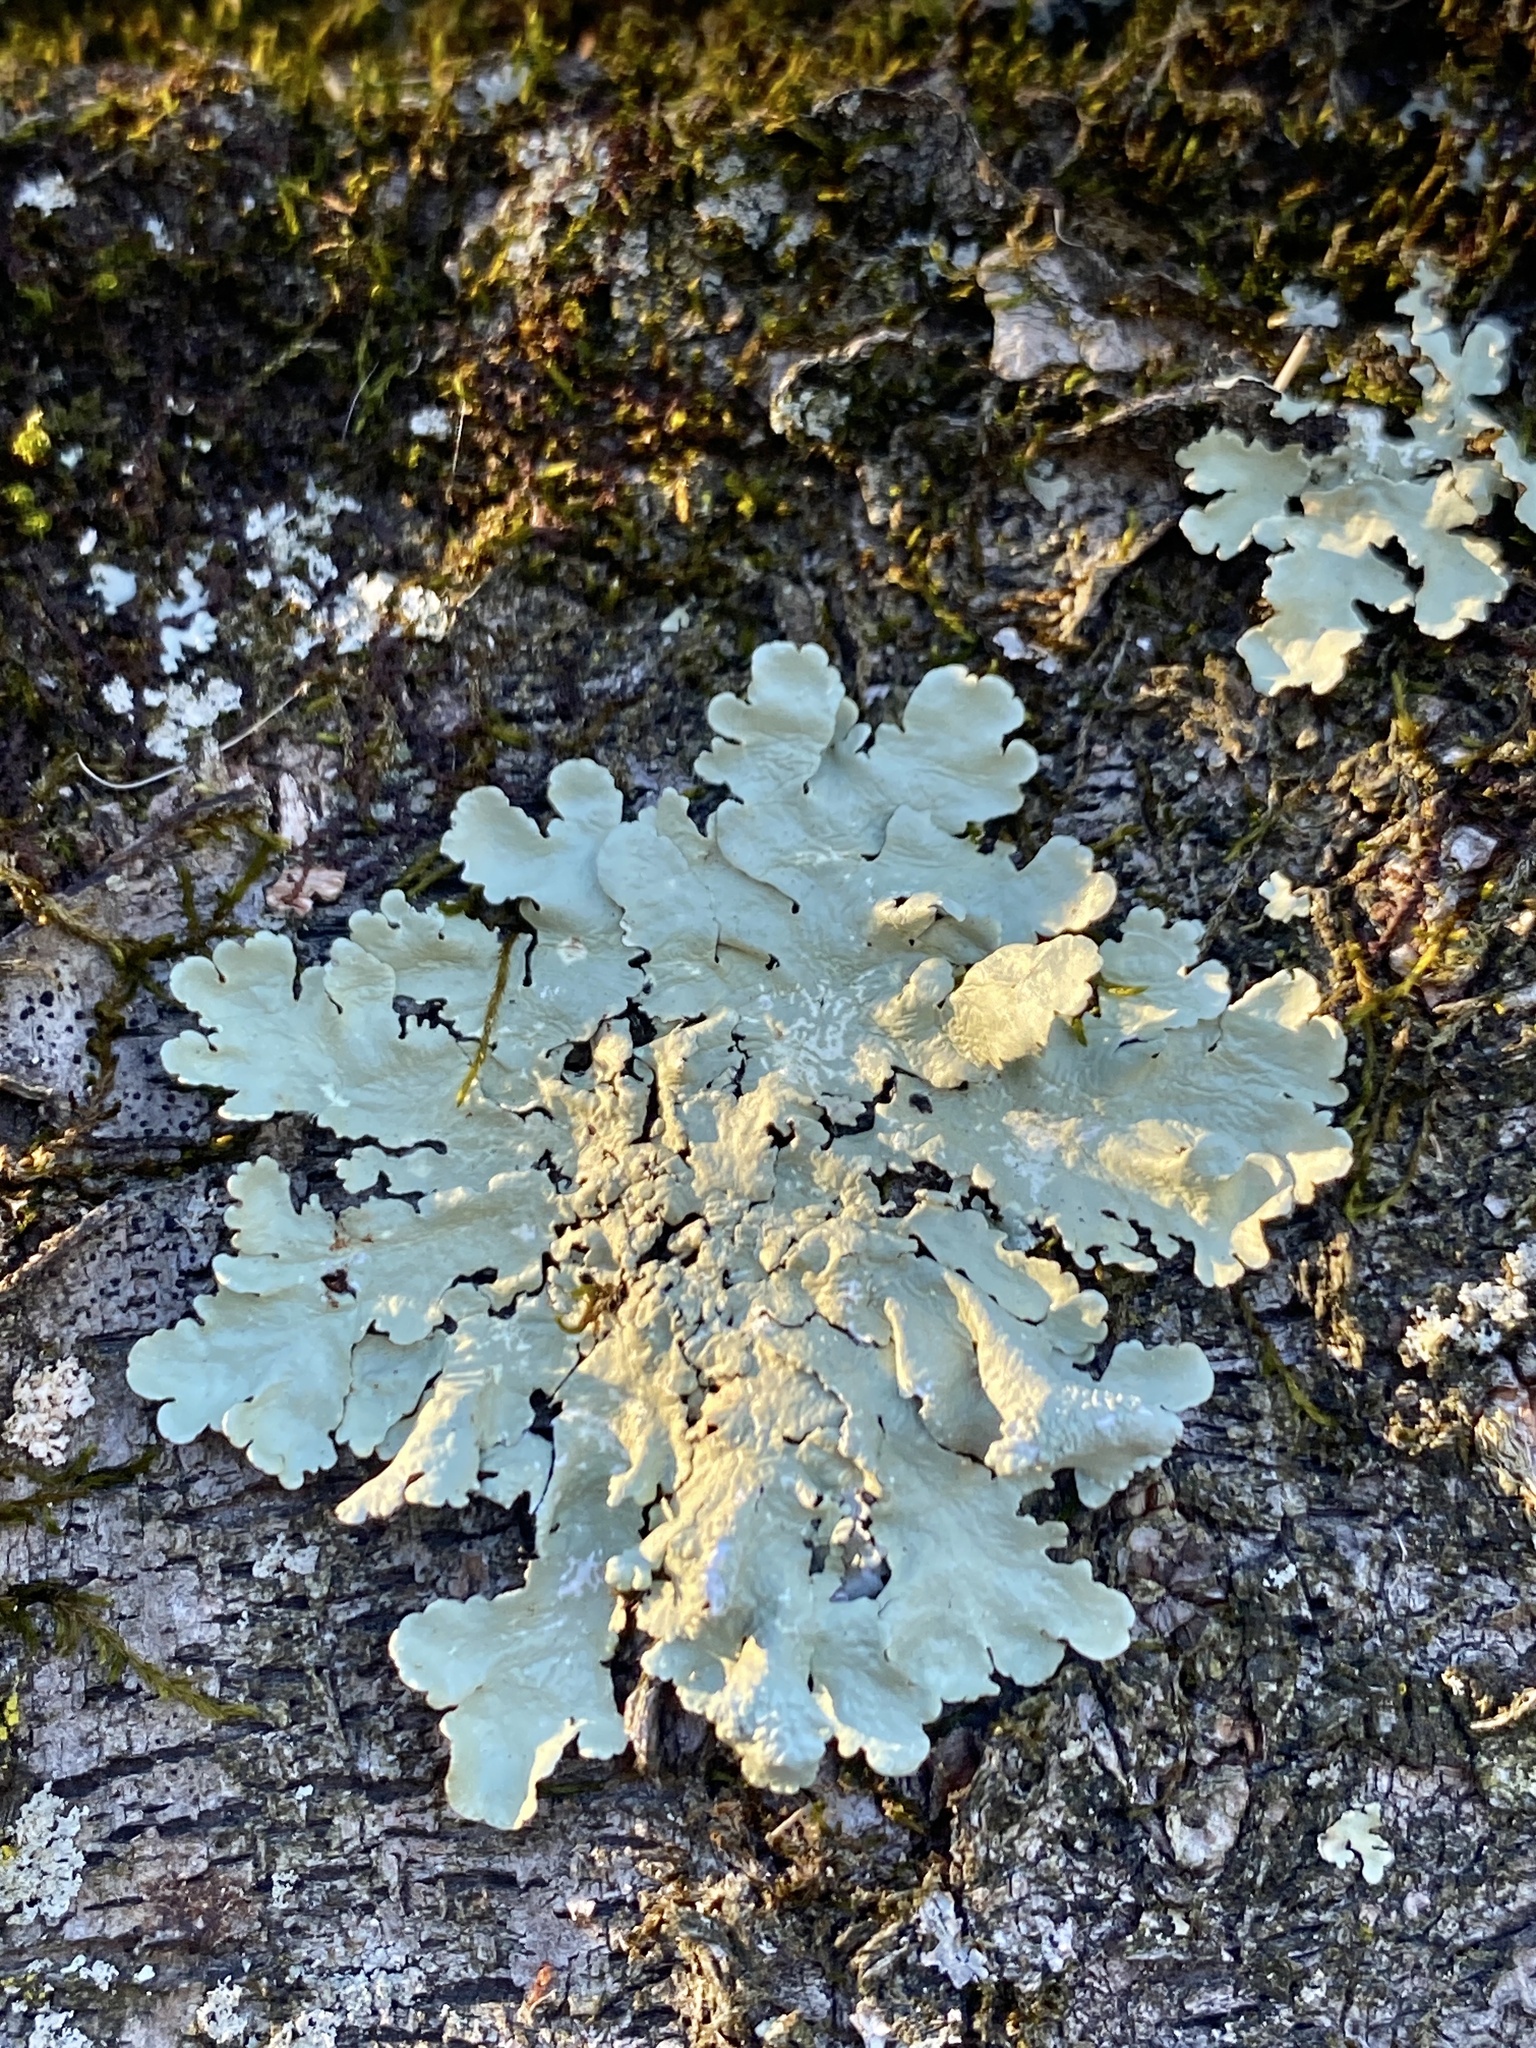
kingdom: Fungi
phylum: Ascomycota
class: Lecanoromycetes
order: Lecanorales
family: Parmeliaceae
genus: Flavoparmelia
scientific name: Flavoparmelia caperata
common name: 40-mile per hour lichen
